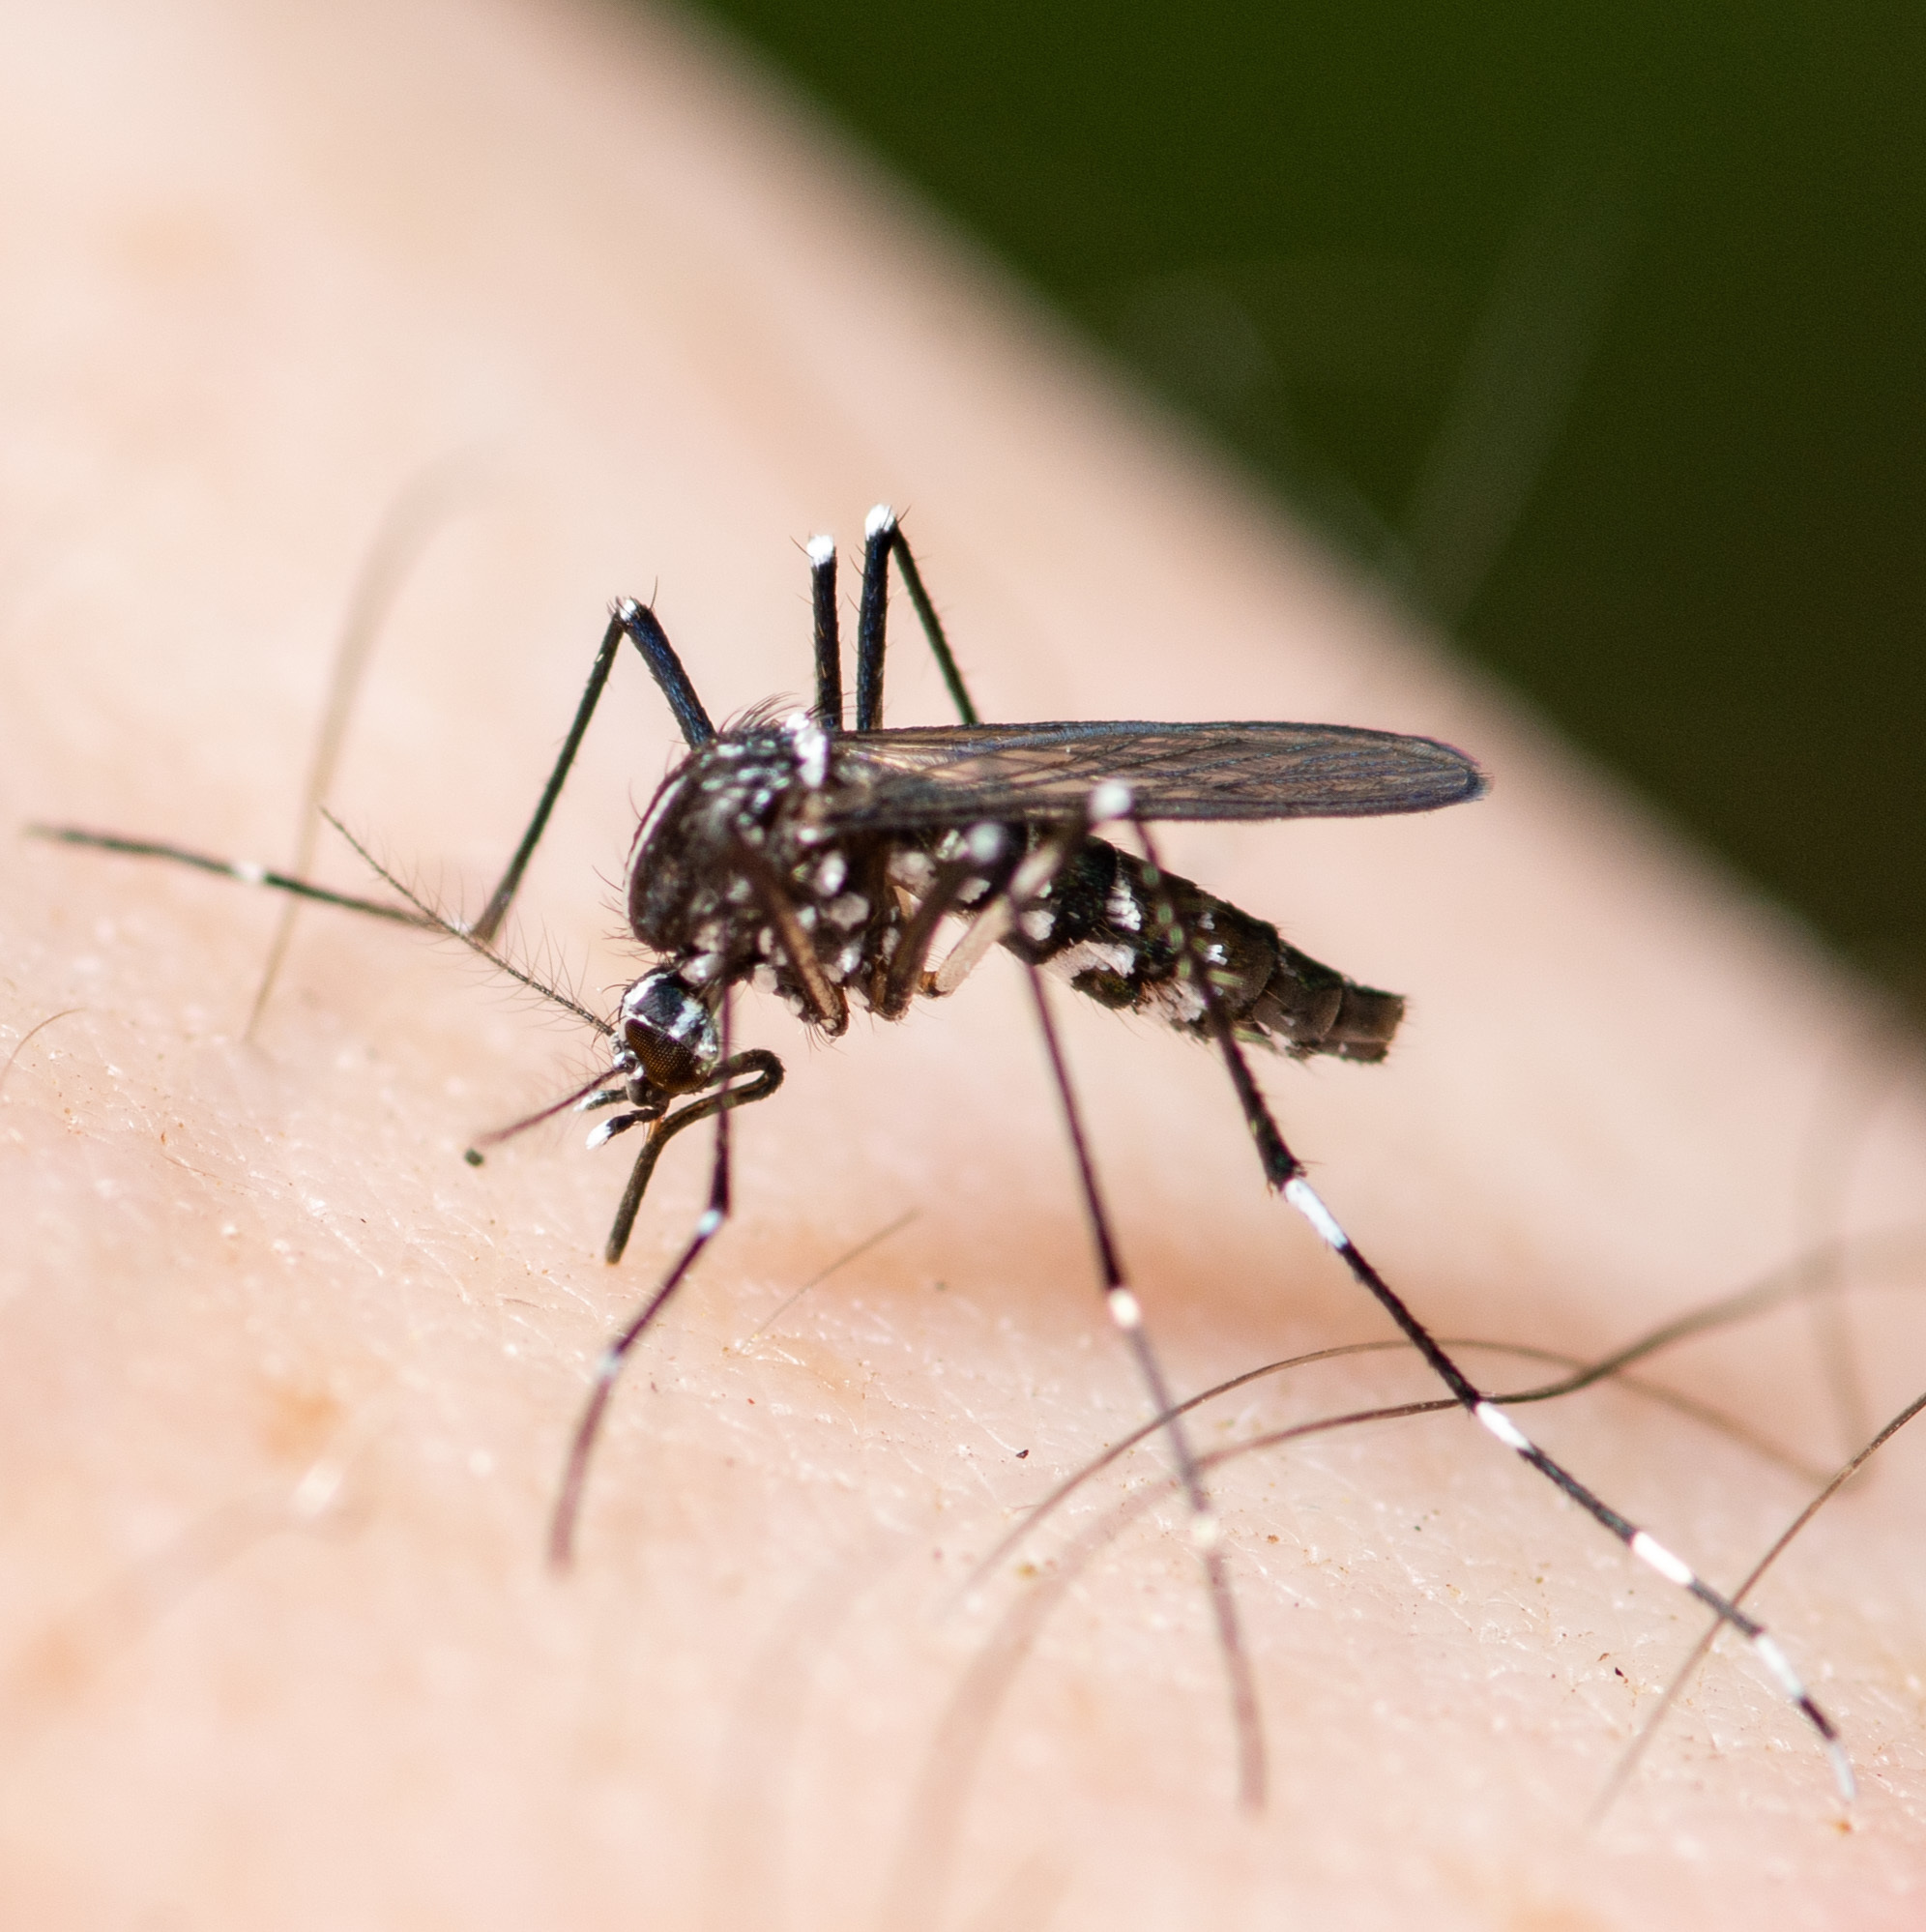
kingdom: Animalia
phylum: Arthropoda
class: Insecta
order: Diptera
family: Culicidae
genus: Aedes
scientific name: Aedes albopictus
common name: Tiger mosquito
